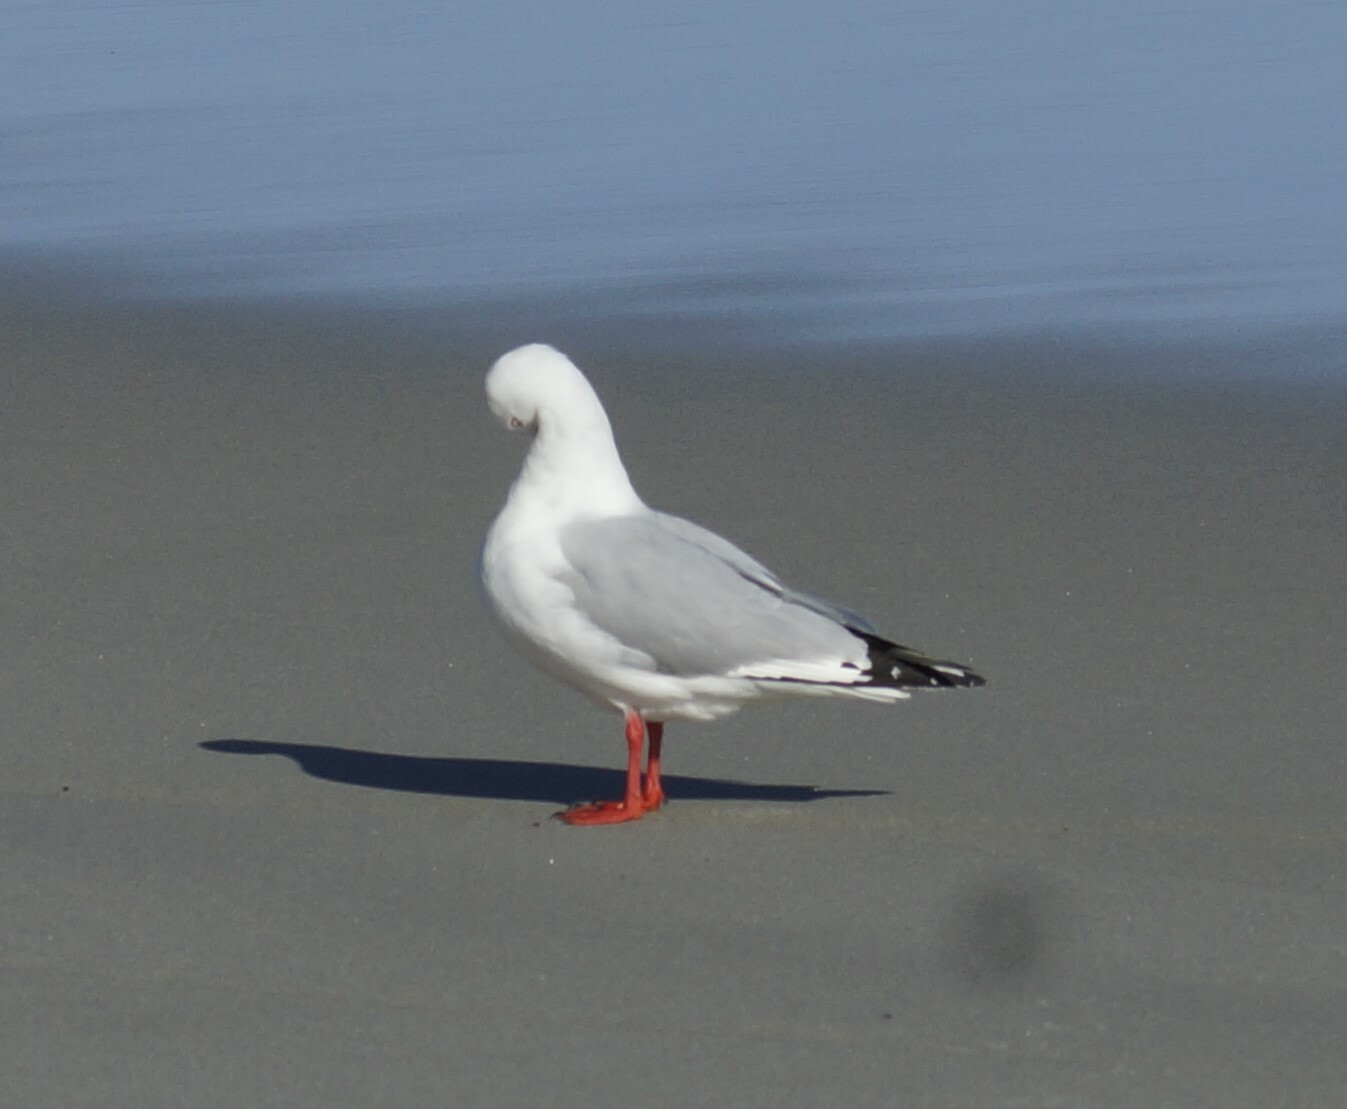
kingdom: Animalia
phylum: Chordata
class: Aves
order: Charadriiformes
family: Laridae
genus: Chroicocephalus
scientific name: Chroicocephalus novaehollandiae
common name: Silver gull
